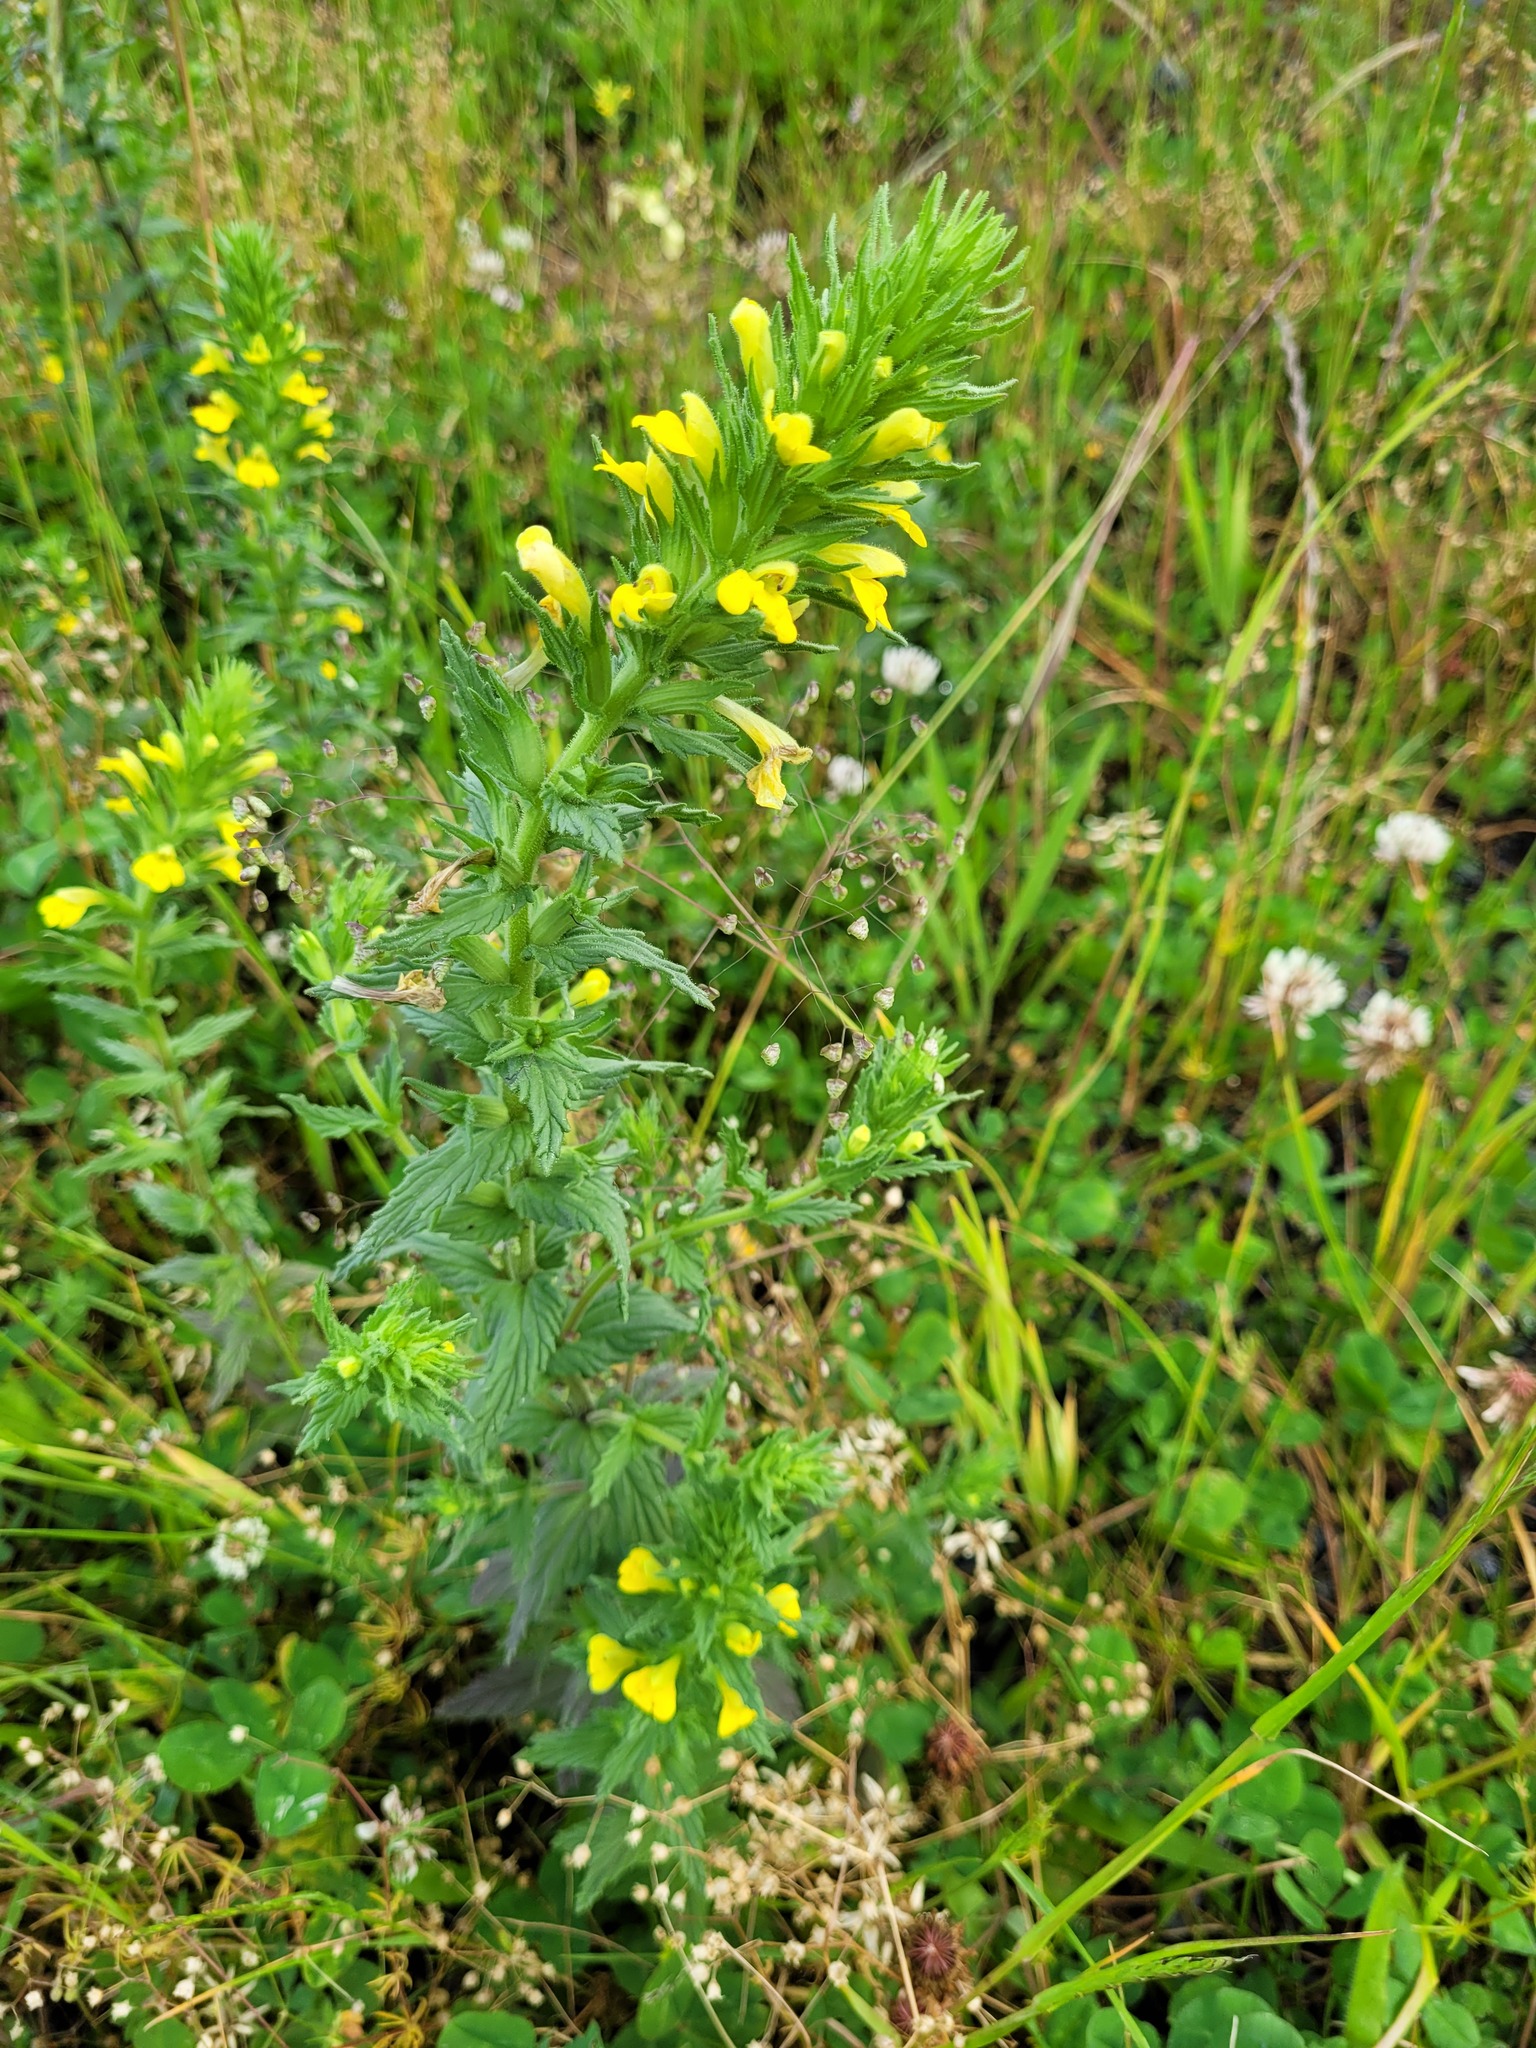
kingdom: Plantae
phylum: Tracheophyta
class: Magnoliopsida
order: Lamiales
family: Orobanchaceae
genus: Bellardia
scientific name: Bellardia viscosa
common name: Sticky parentucellia
